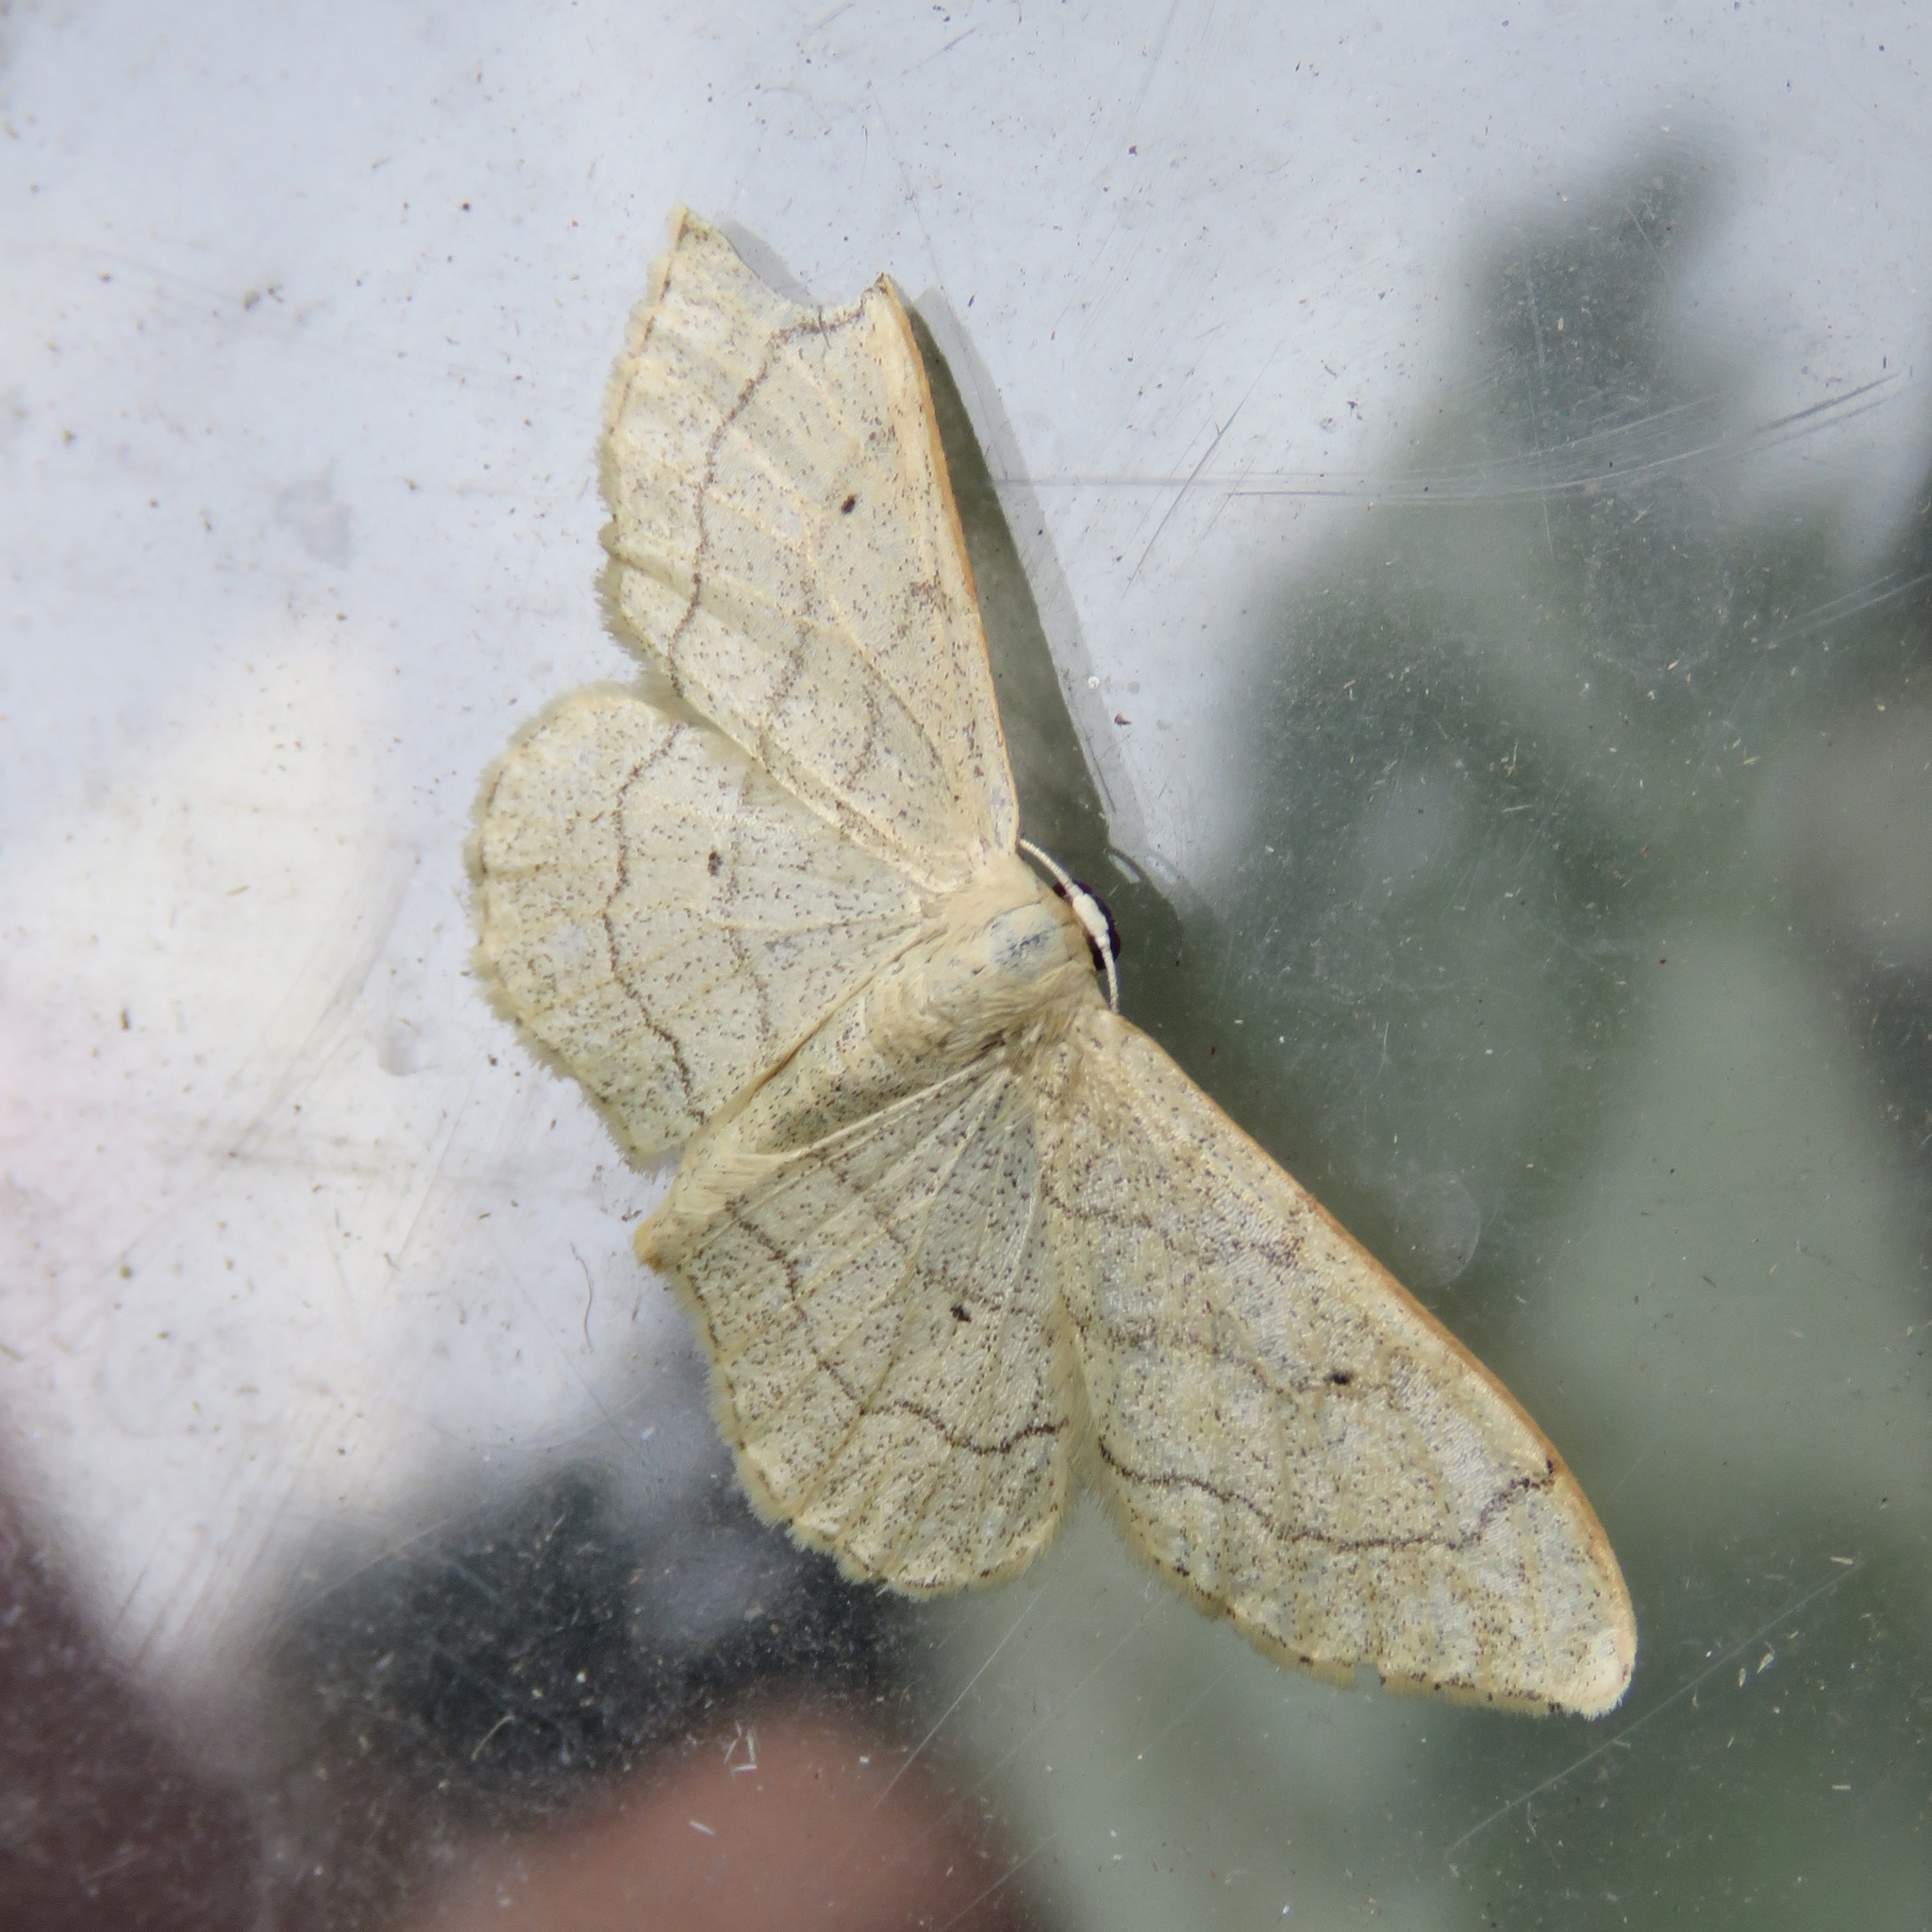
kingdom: Animalia
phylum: Arthropoda
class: Insecta
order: Lepidoptera
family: Geometridae
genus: Idaea
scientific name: Idaea aversata
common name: Riband wave
